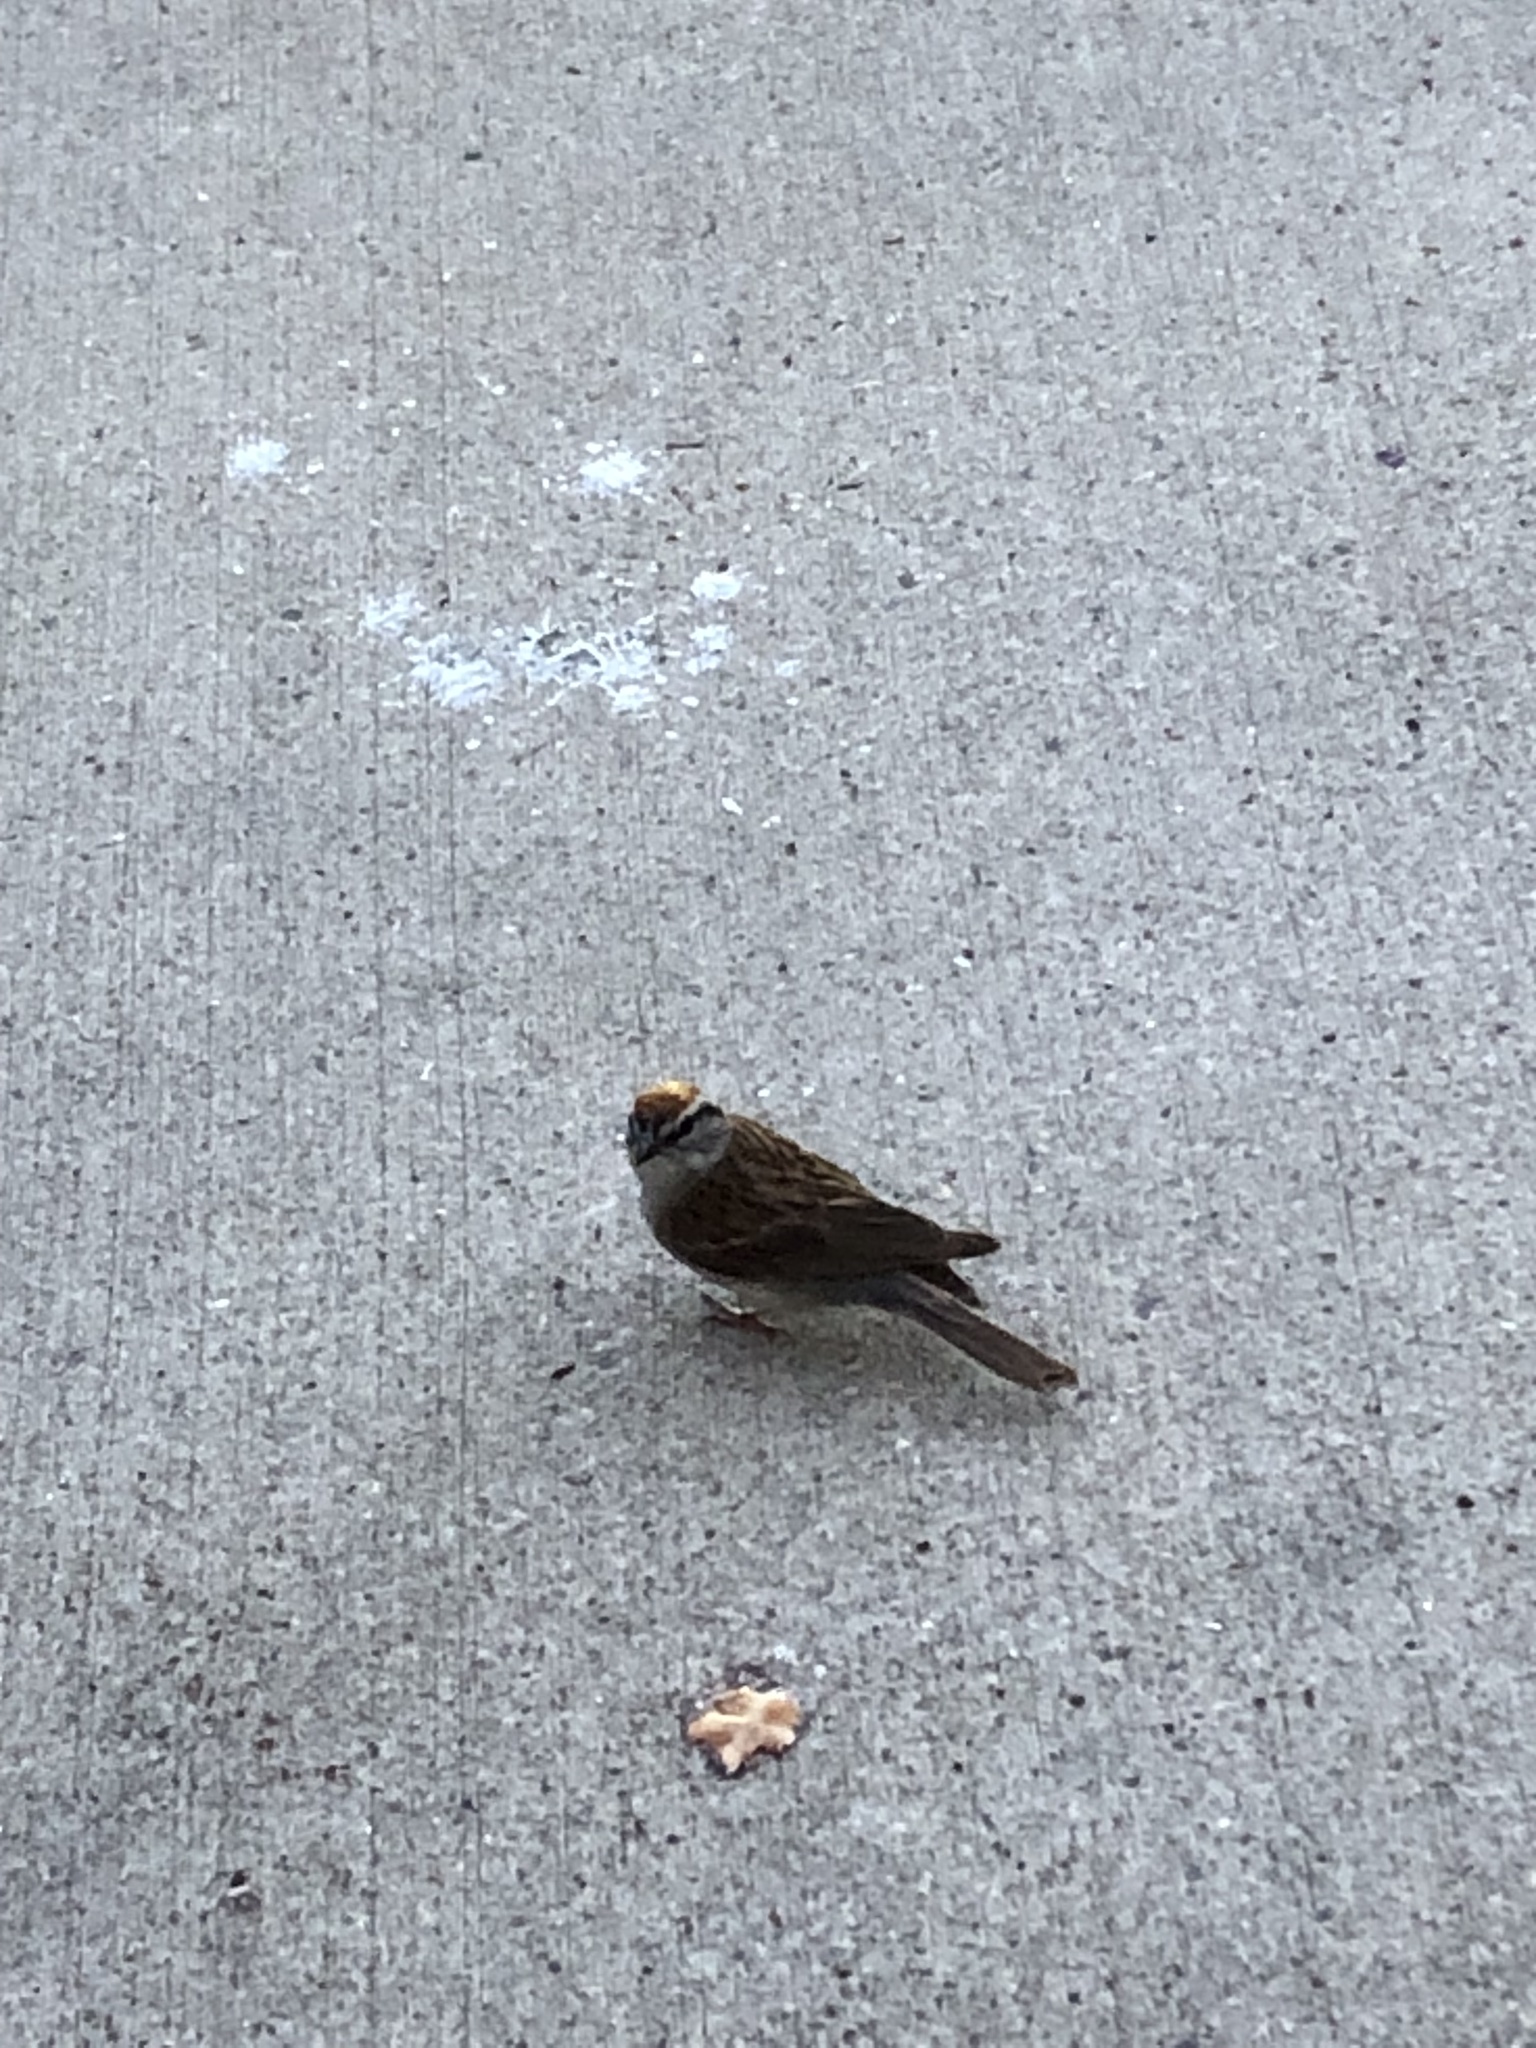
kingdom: Animalia
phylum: Chordata
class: Aves
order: Passeriformes
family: Passerellidae
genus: Spizella
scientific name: Spizella passerina
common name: Chipping sparrow
